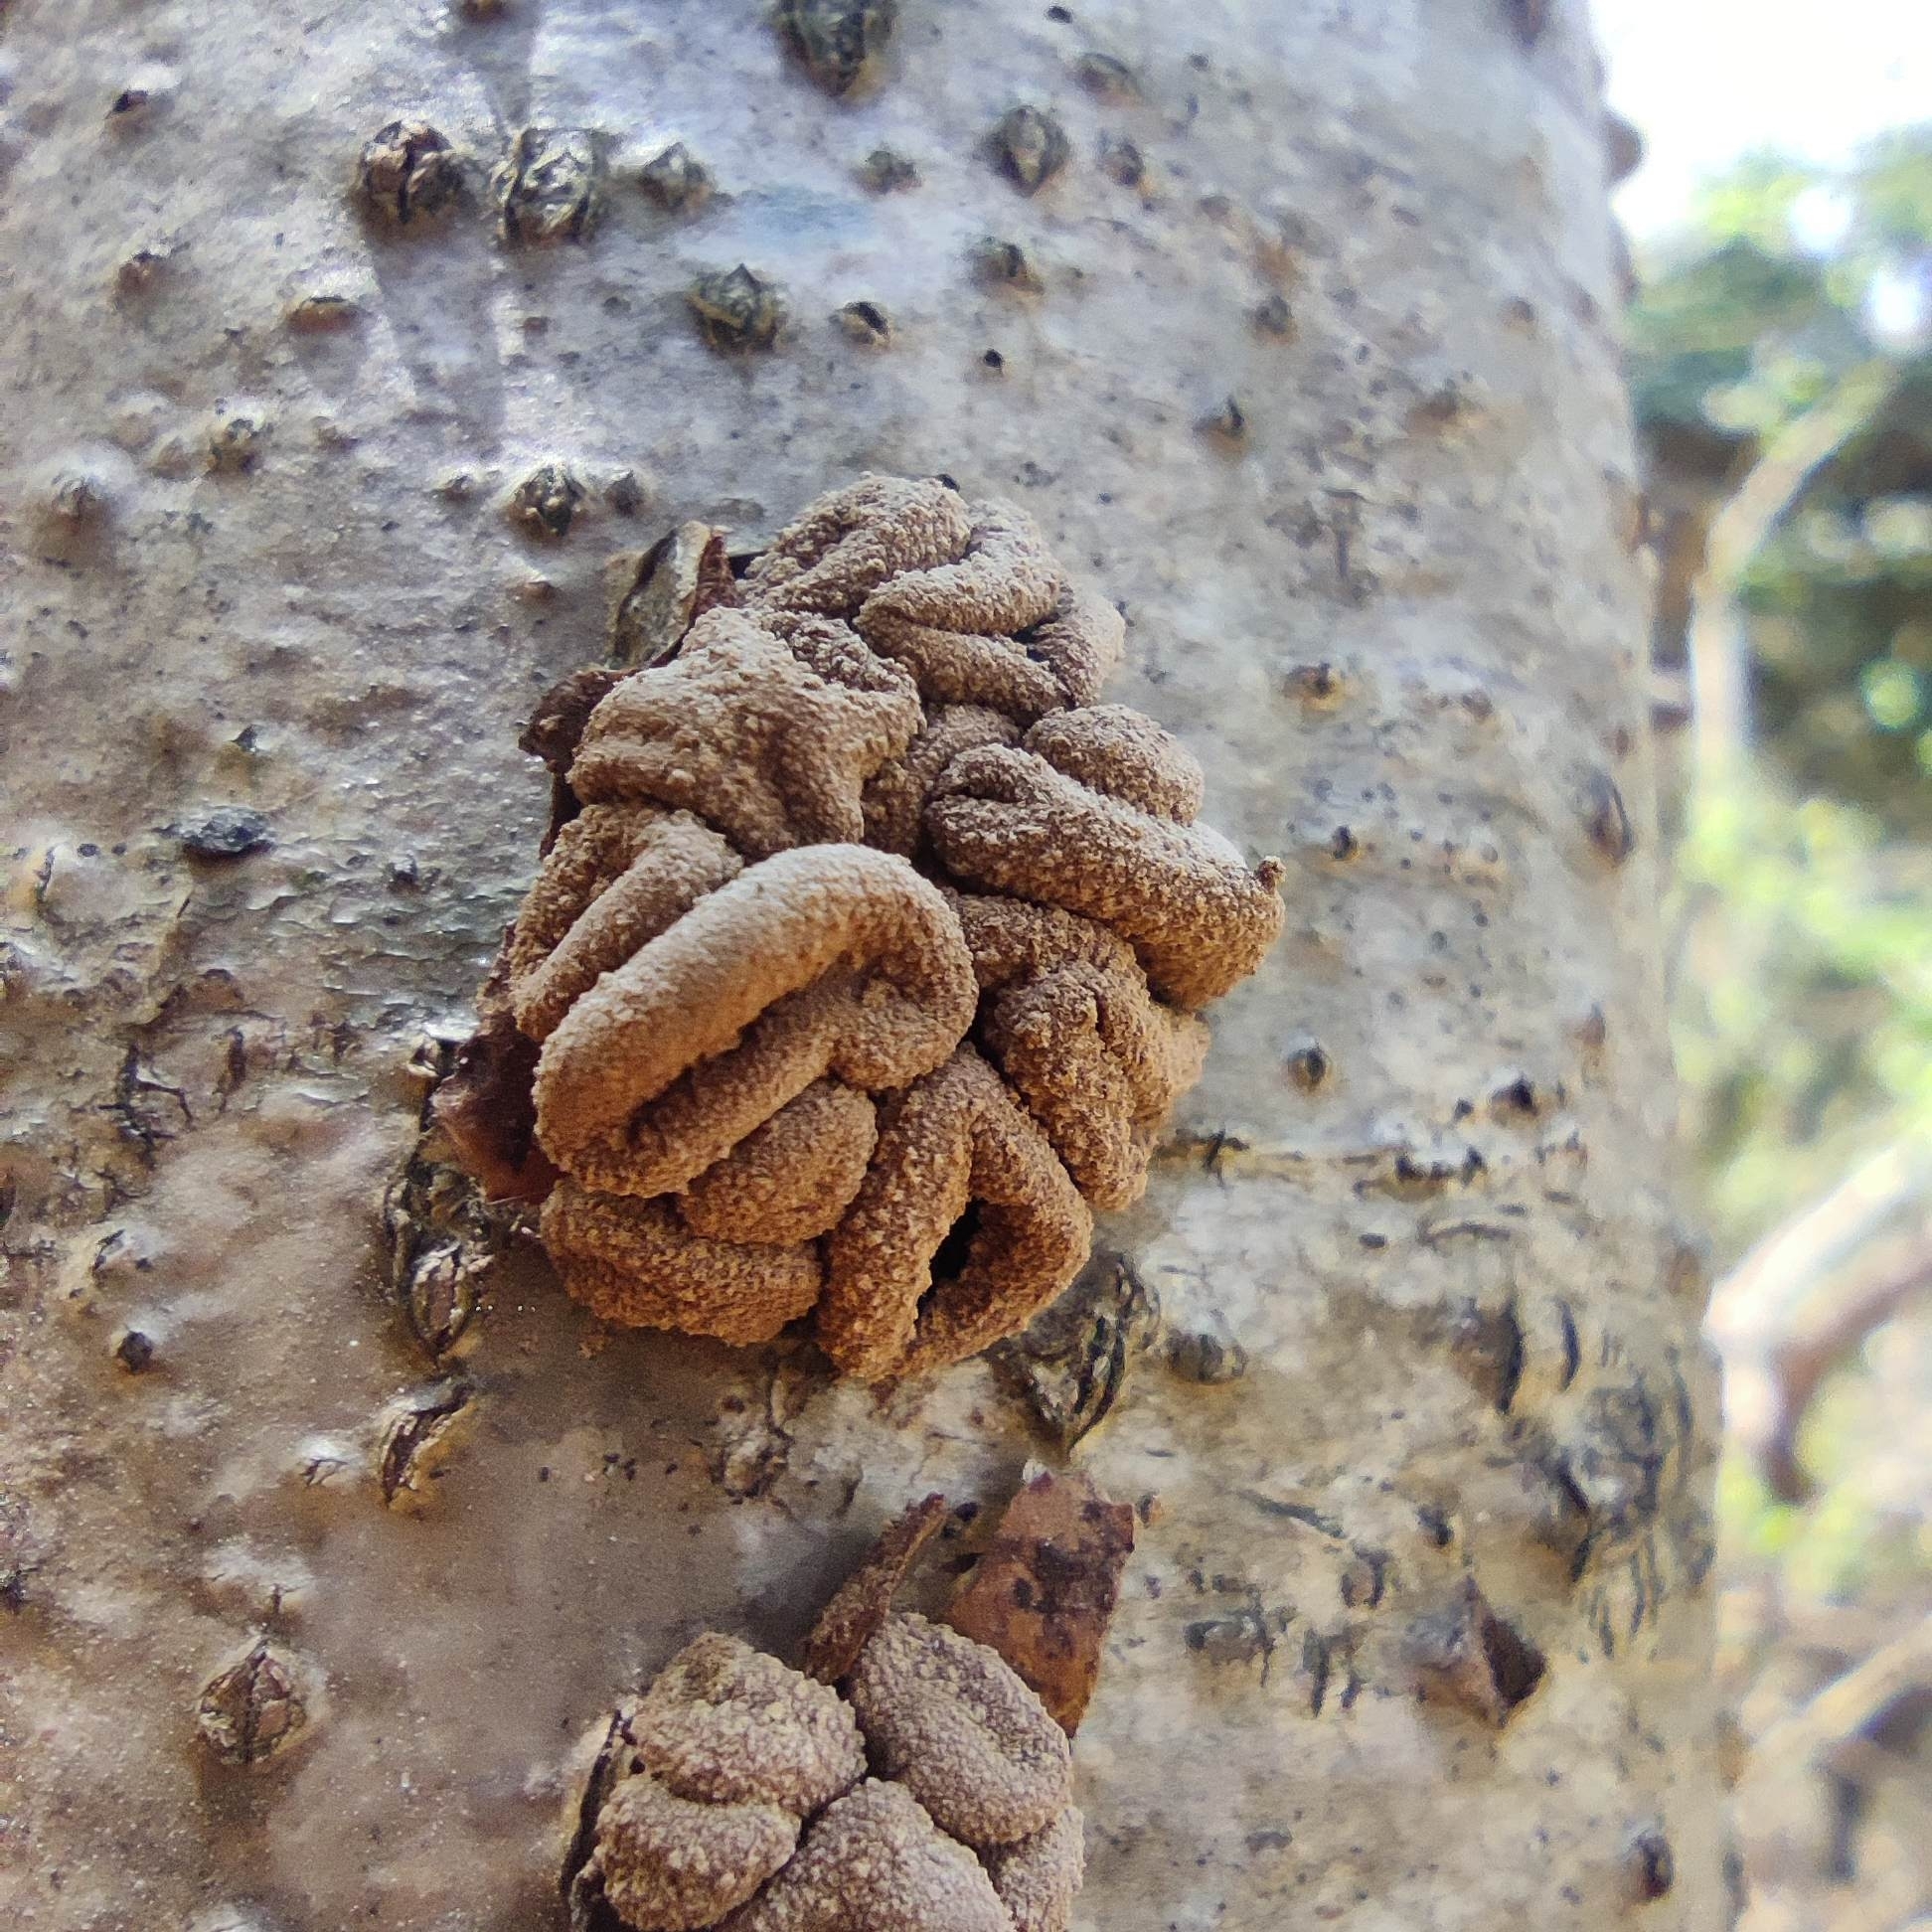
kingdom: Fungi
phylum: Ascomycota
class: Leotiomycetes
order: Helotiales
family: Cenangiaceae
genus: Encoelia
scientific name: Encoelia furfuracea
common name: Spring hazelcup
